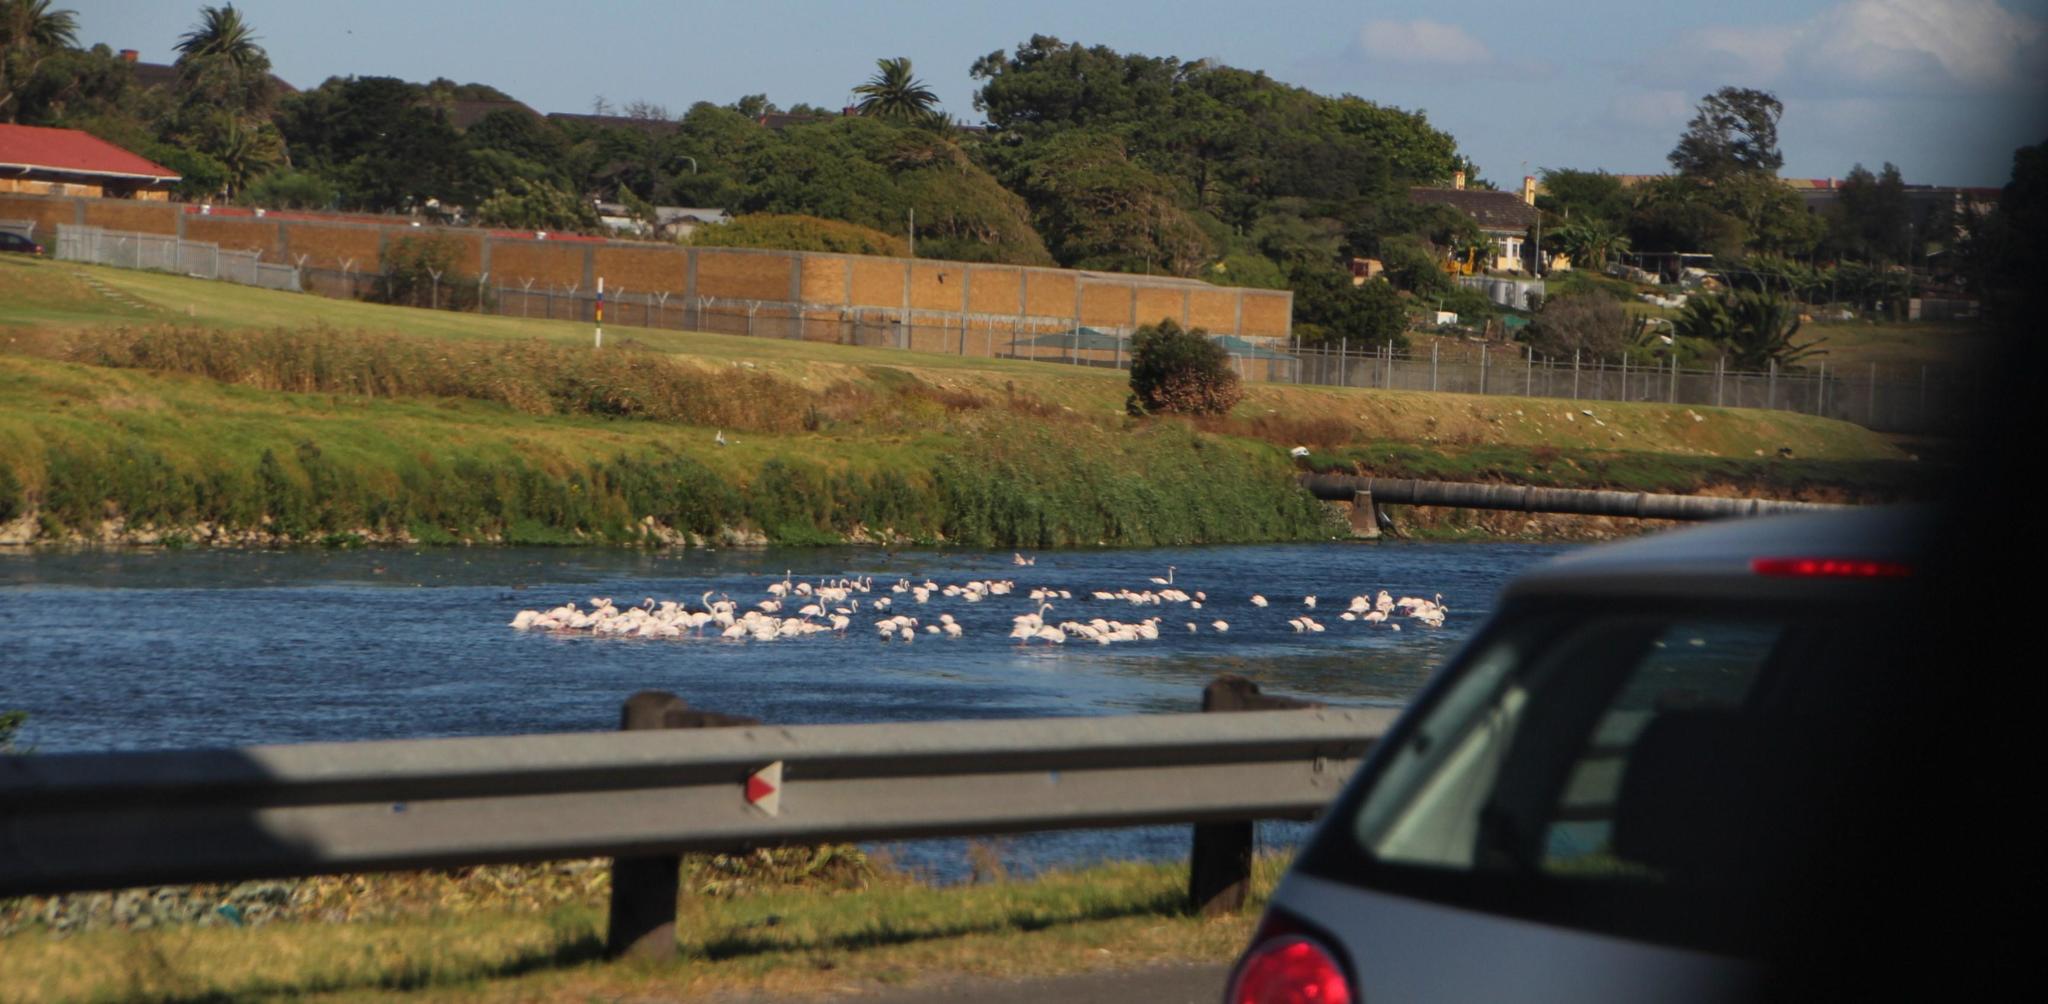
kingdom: Animalia
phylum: Chordata
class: Aves
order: Phoenicopteriformes
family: Phoenicopteridae
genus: Phoenicopterus
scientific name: Phoenicopterus roseus
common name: Greater flamingo
